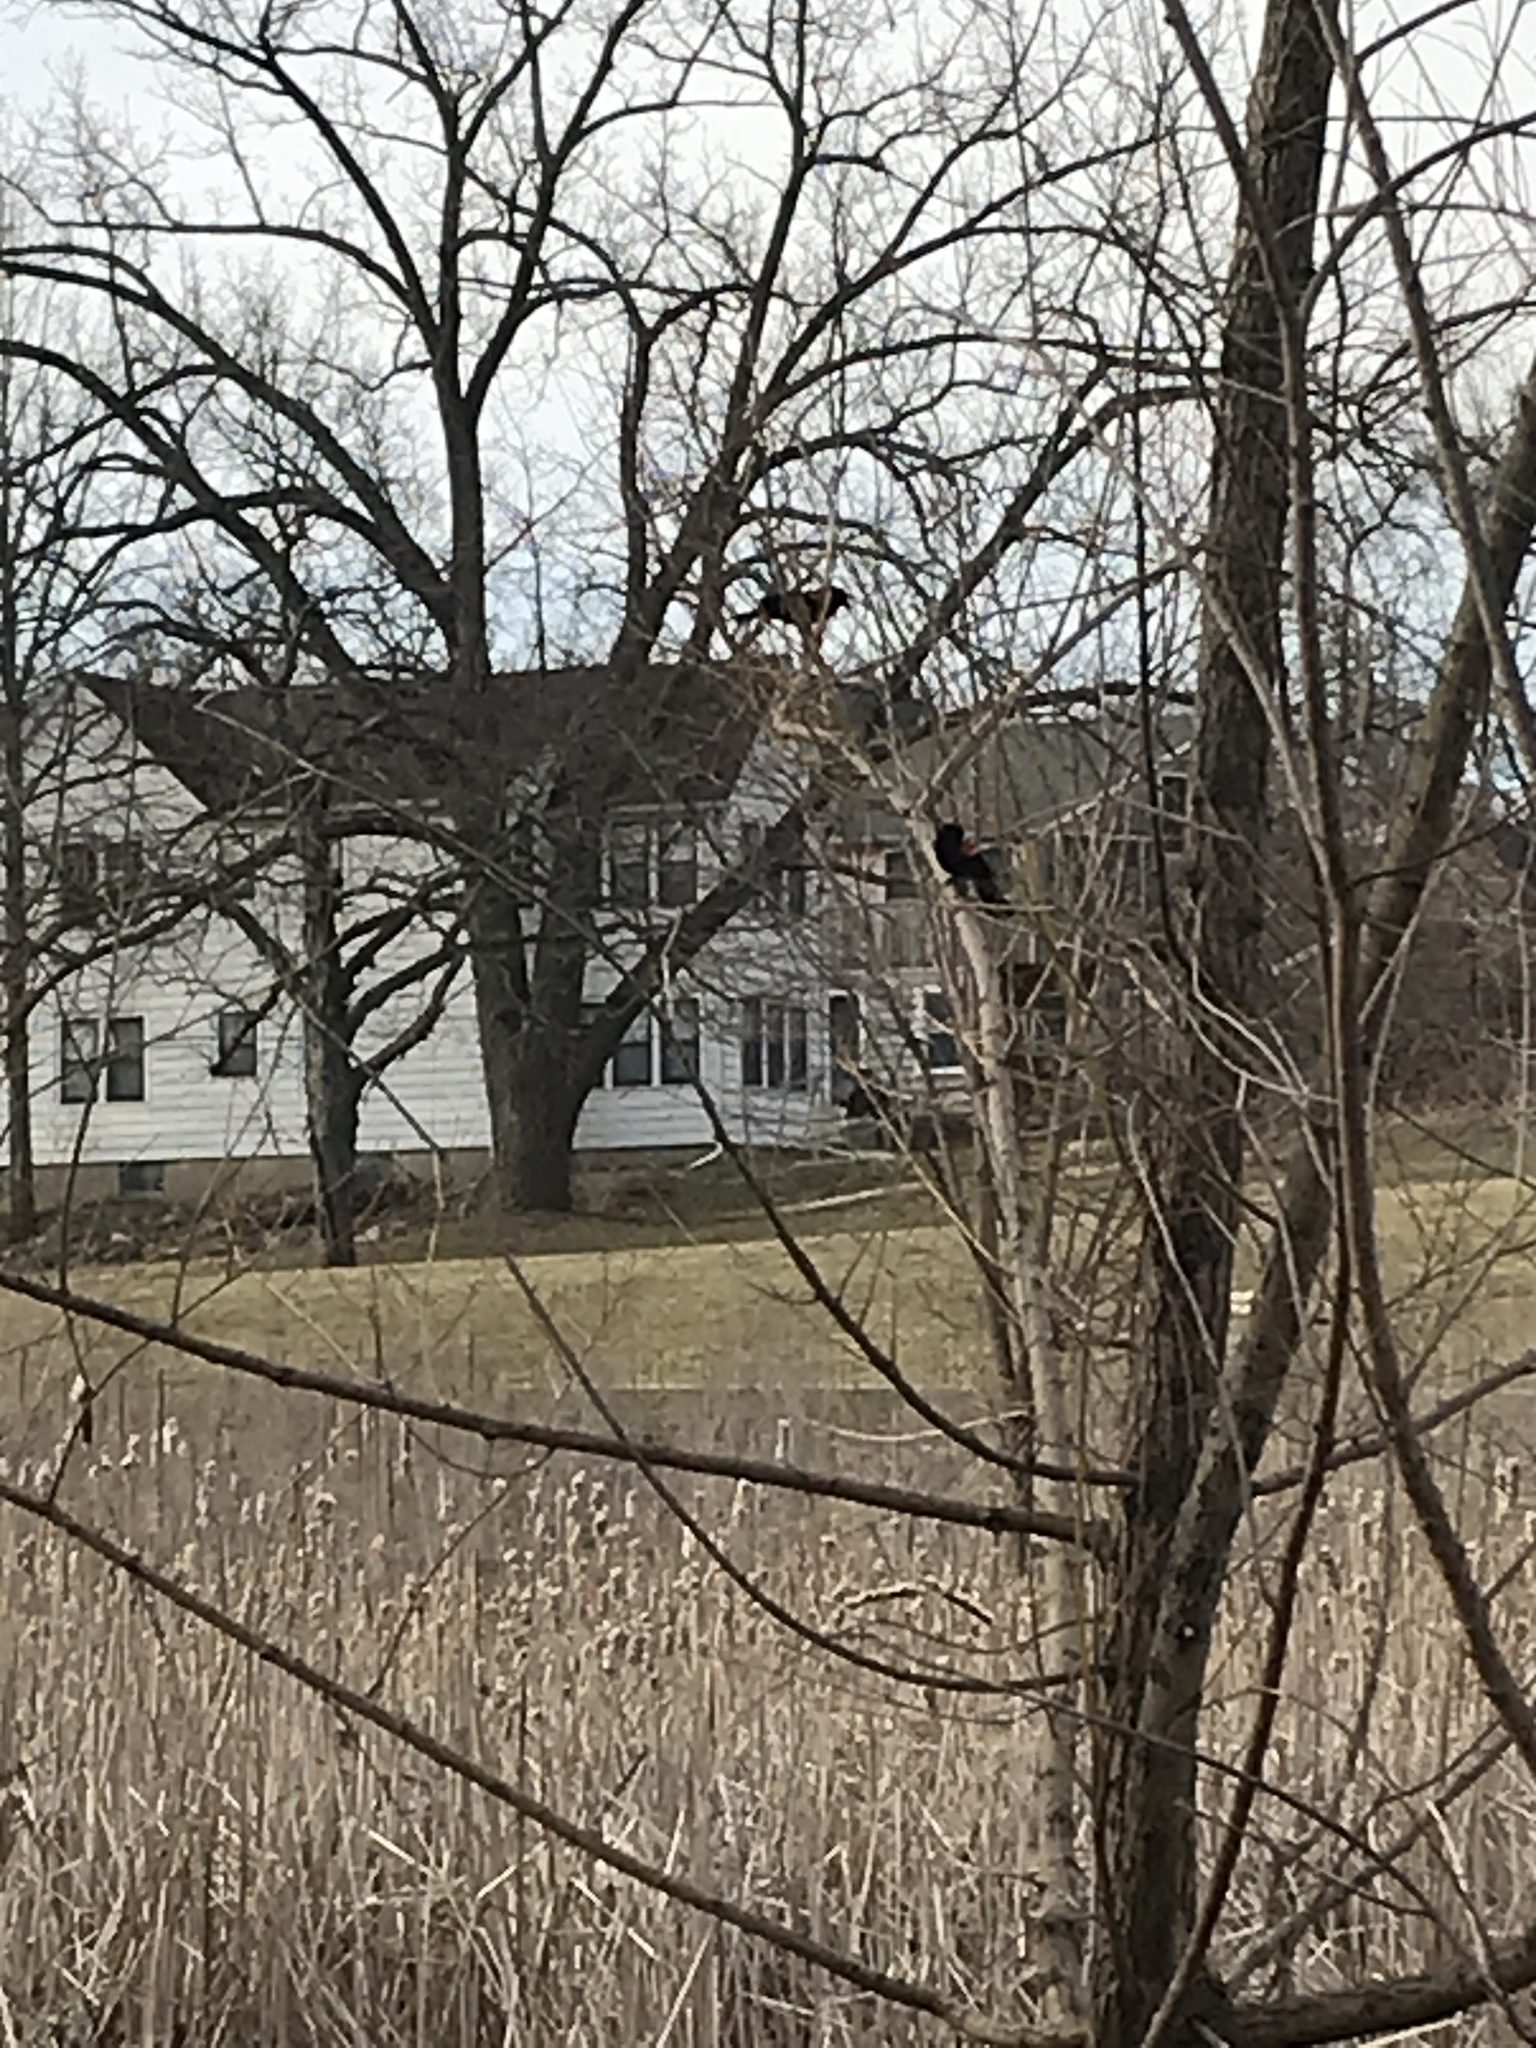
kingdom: Animalia
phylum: Chordata
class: Aves
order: Passeriformes
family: Icteridae
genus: Agelaius
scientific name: Agelaius phoeniceus
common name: Red-winged blackbird
